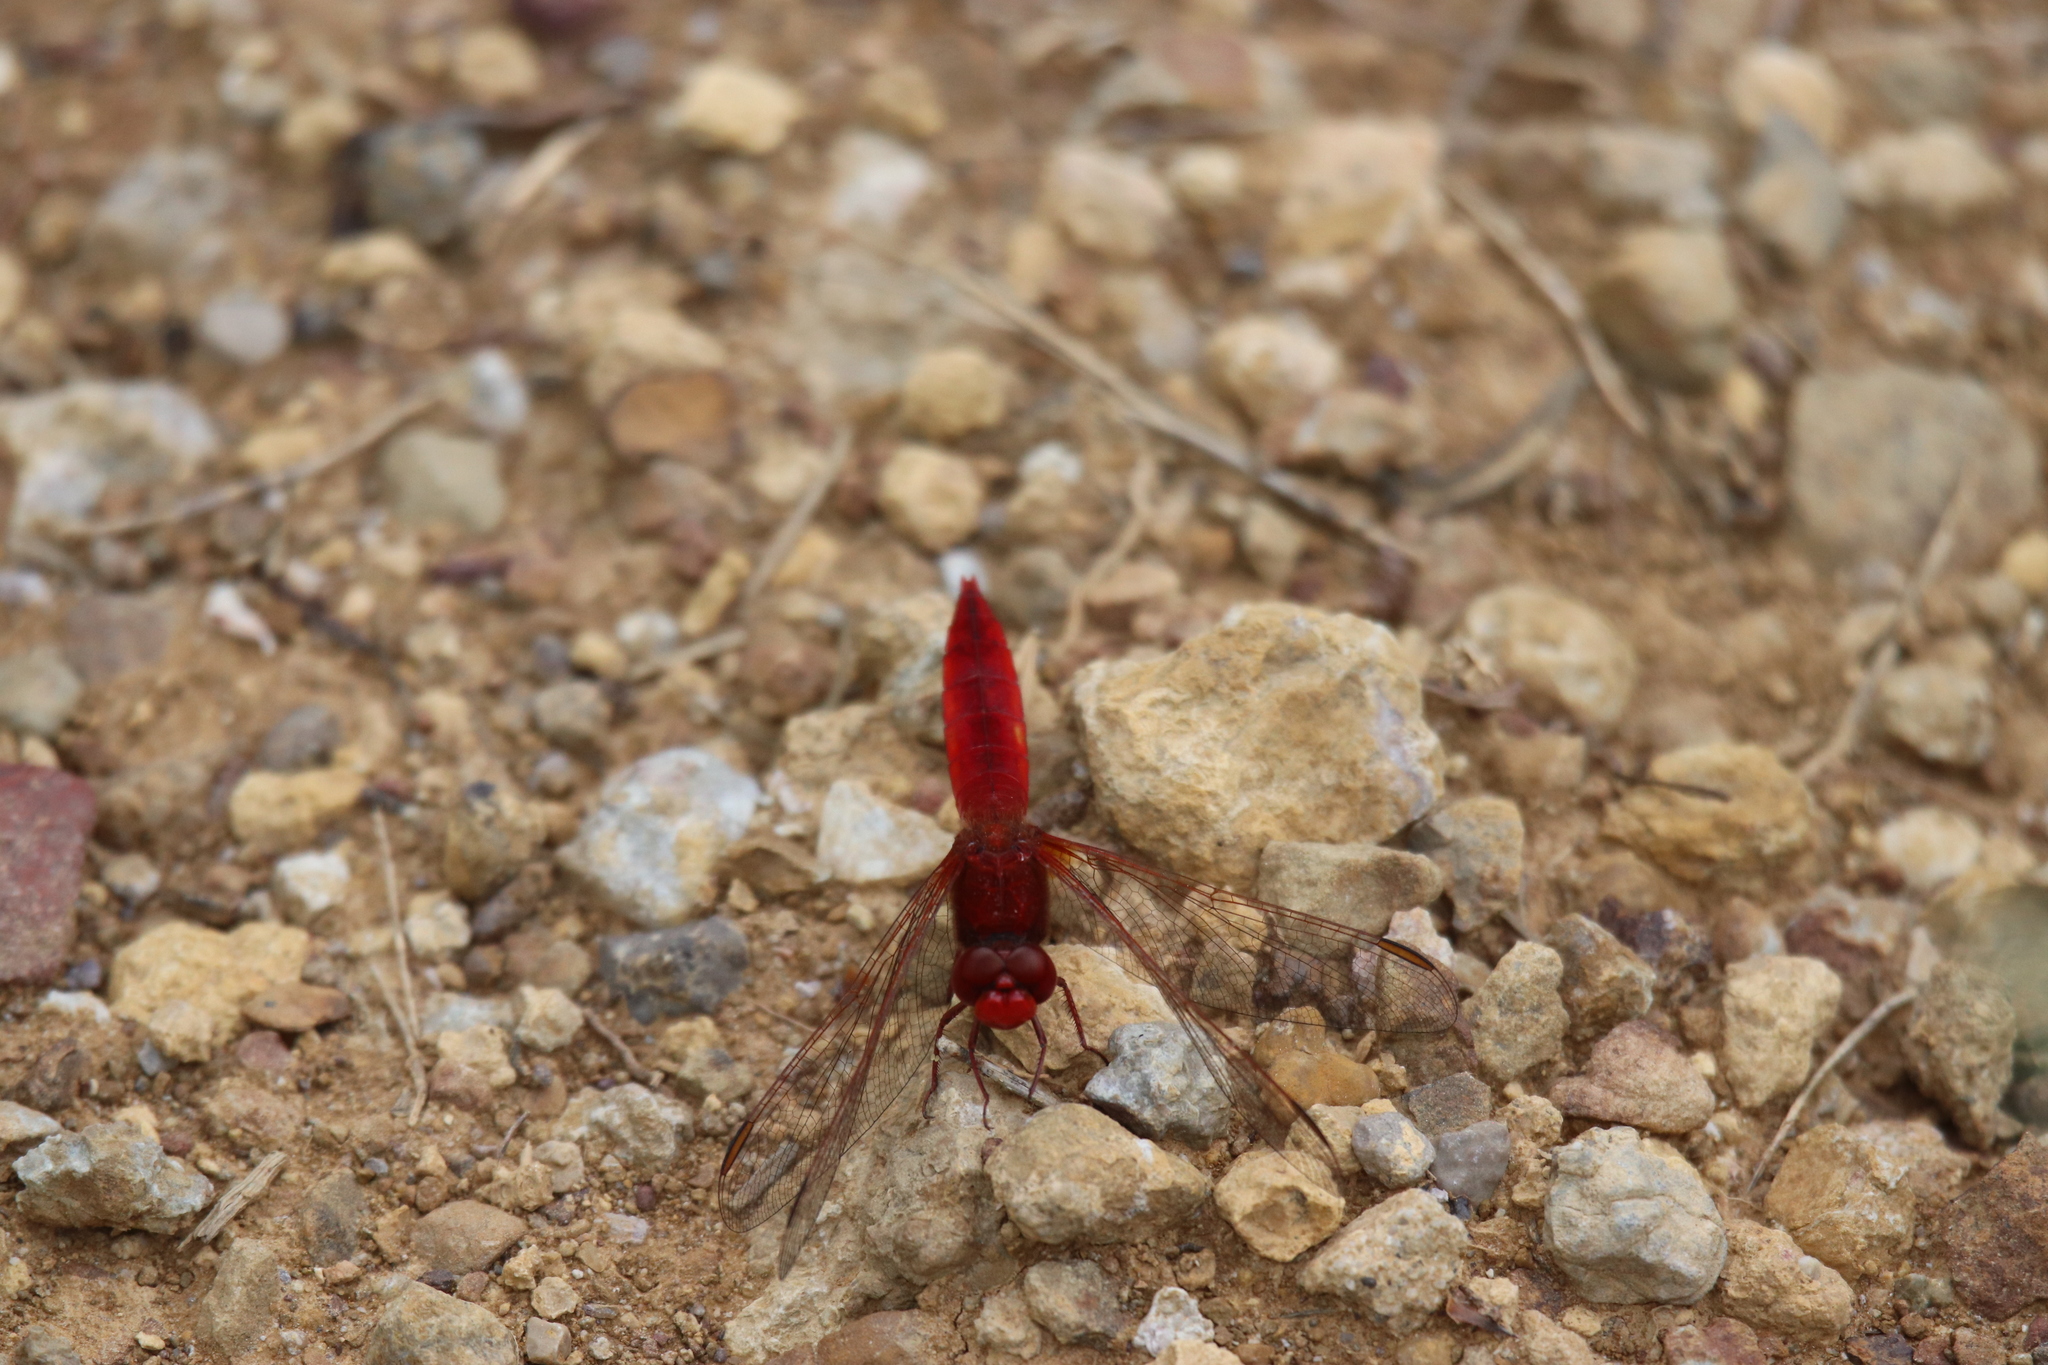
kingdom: Animalia
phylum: Arthropoda
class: Insecta
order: Odonata
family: Libellulidae
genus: Crocothemis
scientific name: Crocothemis erythraea
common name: Scarlet dragonfly
